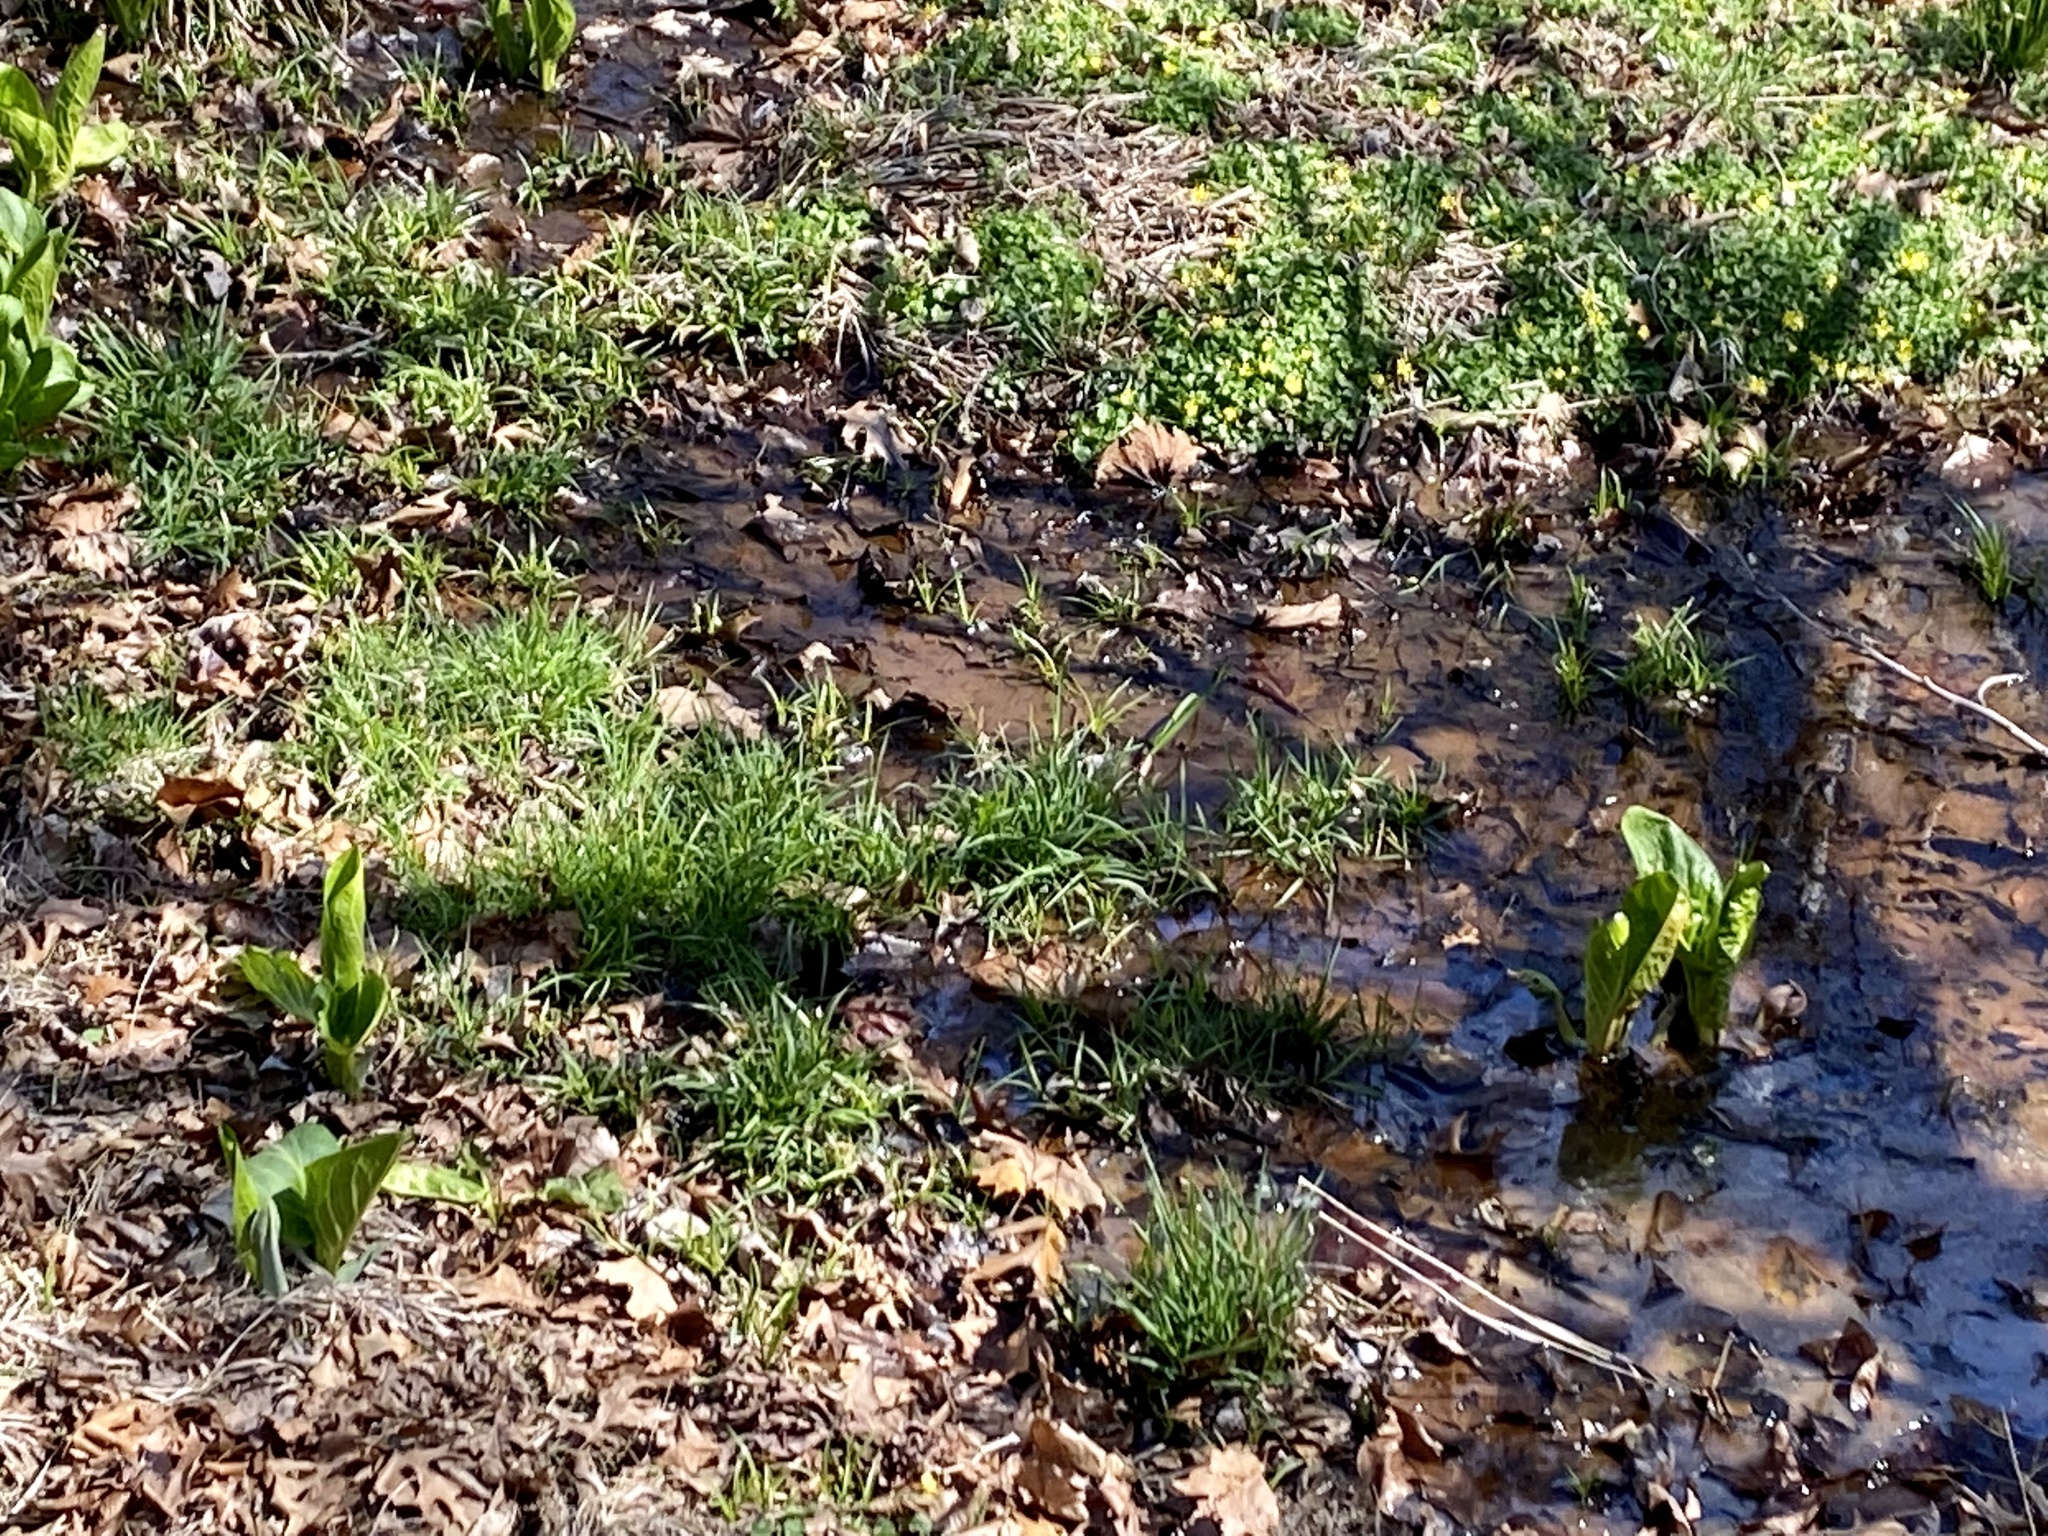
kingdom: Plantae
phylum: Tracheophyta
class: Liliopsida
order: Alismatales
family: Araceae
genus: Symplocarpus
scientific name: Symplocarpus foetidus
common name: Eastern skunk cabbage
